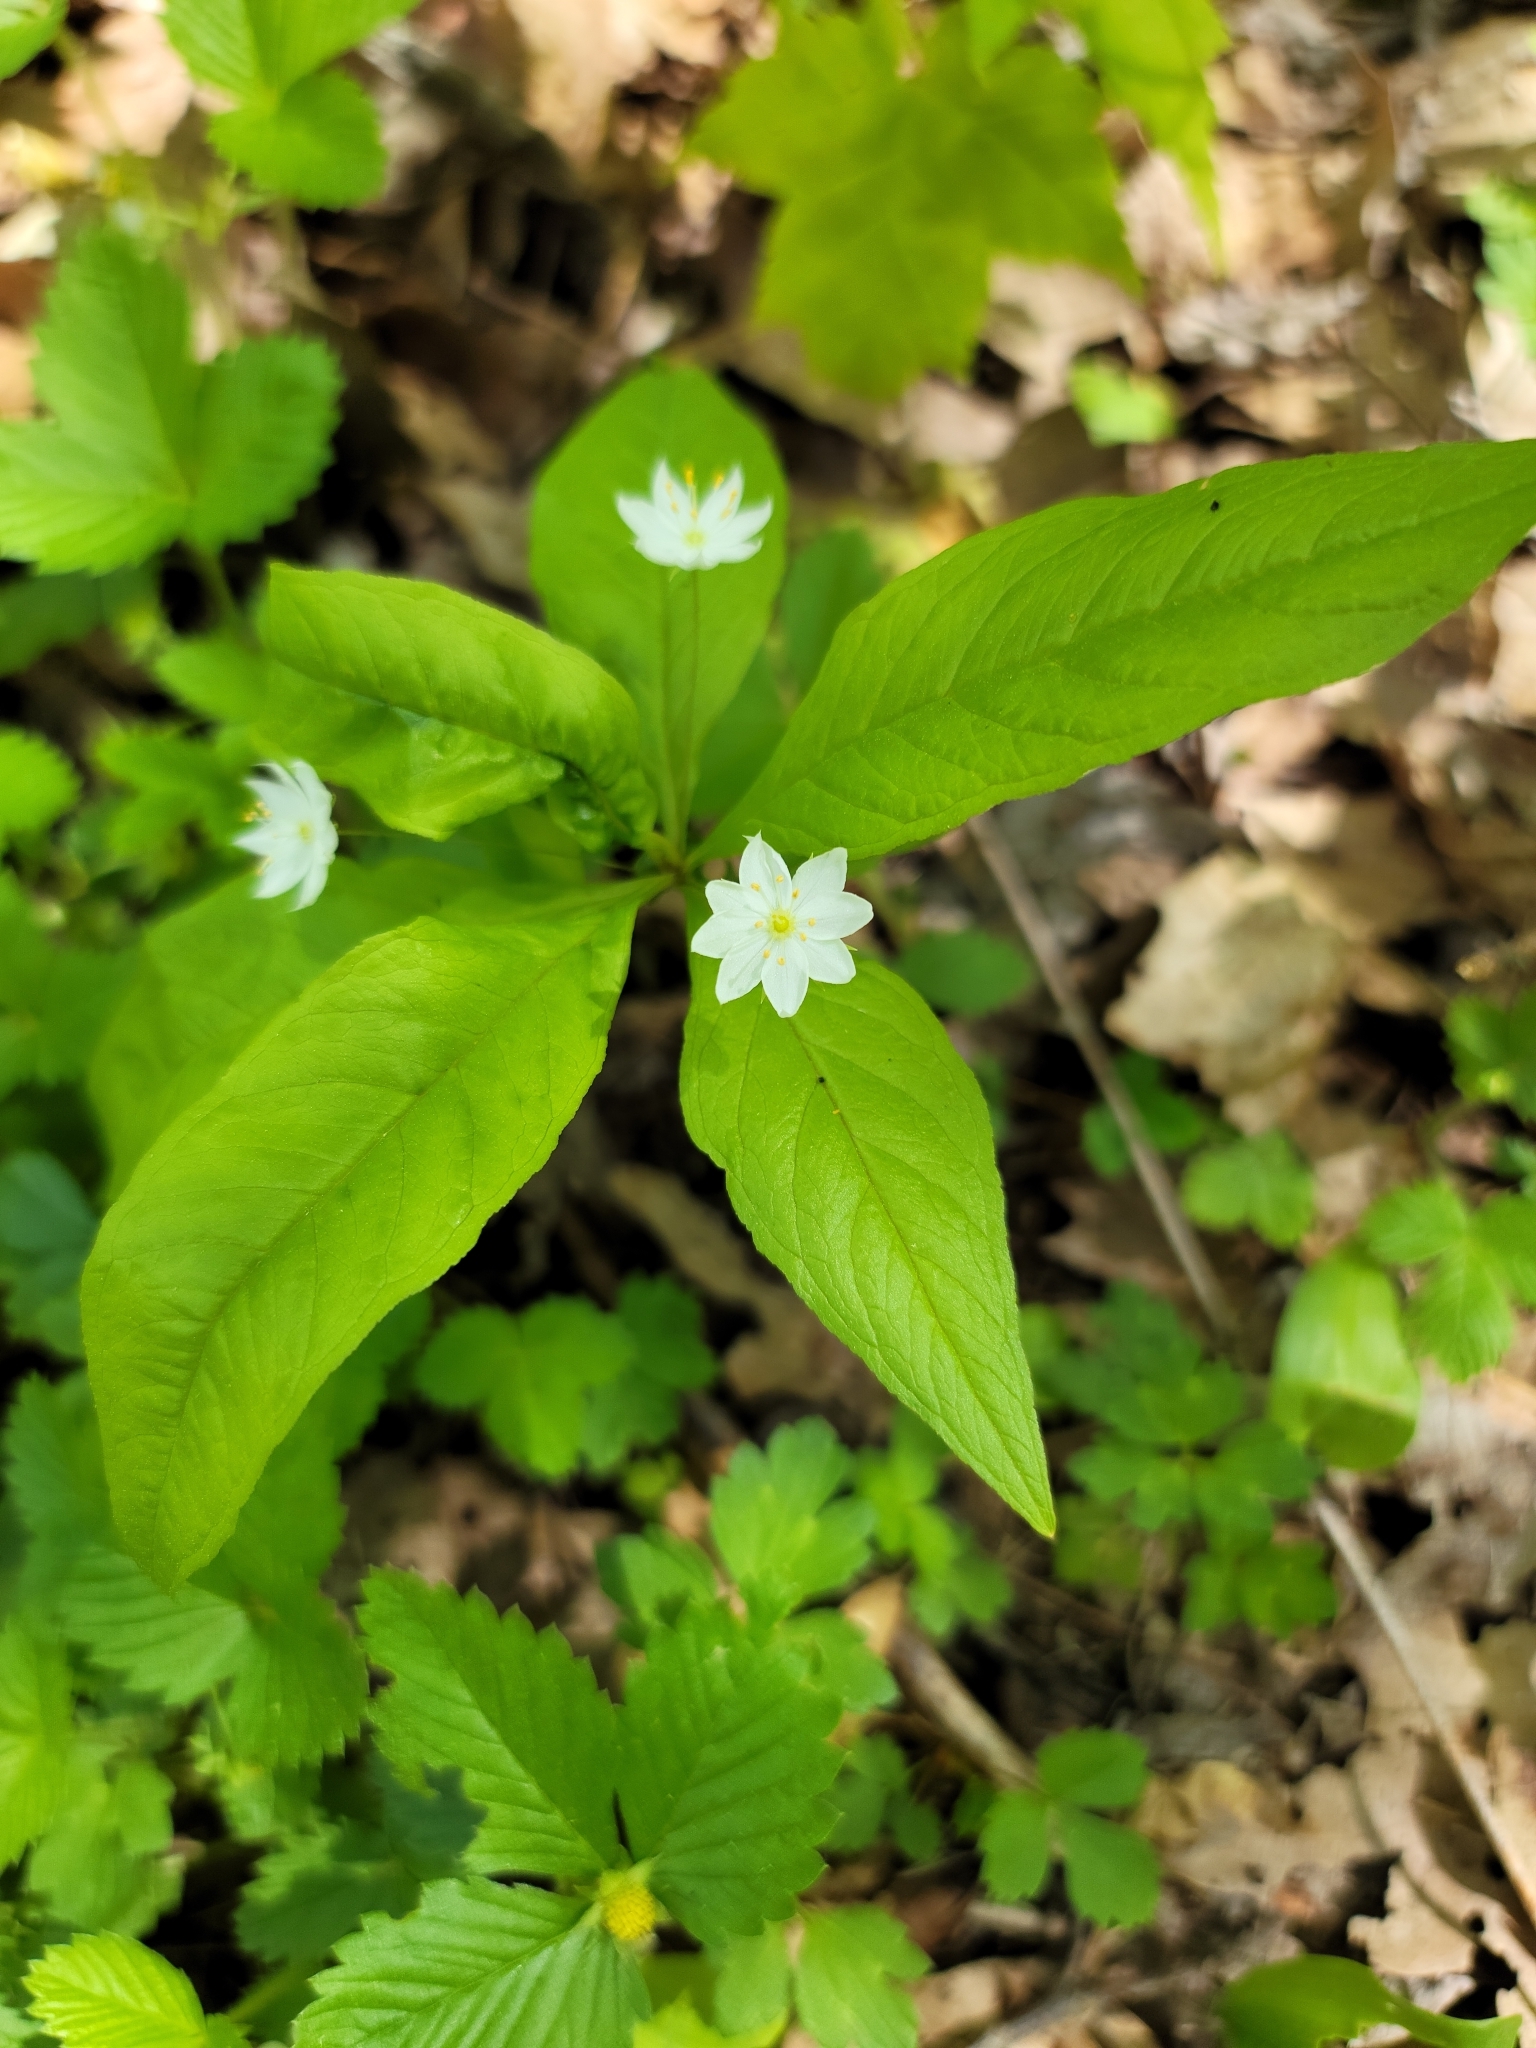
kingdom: Plantae
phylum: Tracheophyta
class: Magnoliopsida
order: Ericales
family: Primulaceae
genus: Lysimachia
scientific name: Lysimachia borealis
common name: American starflower
